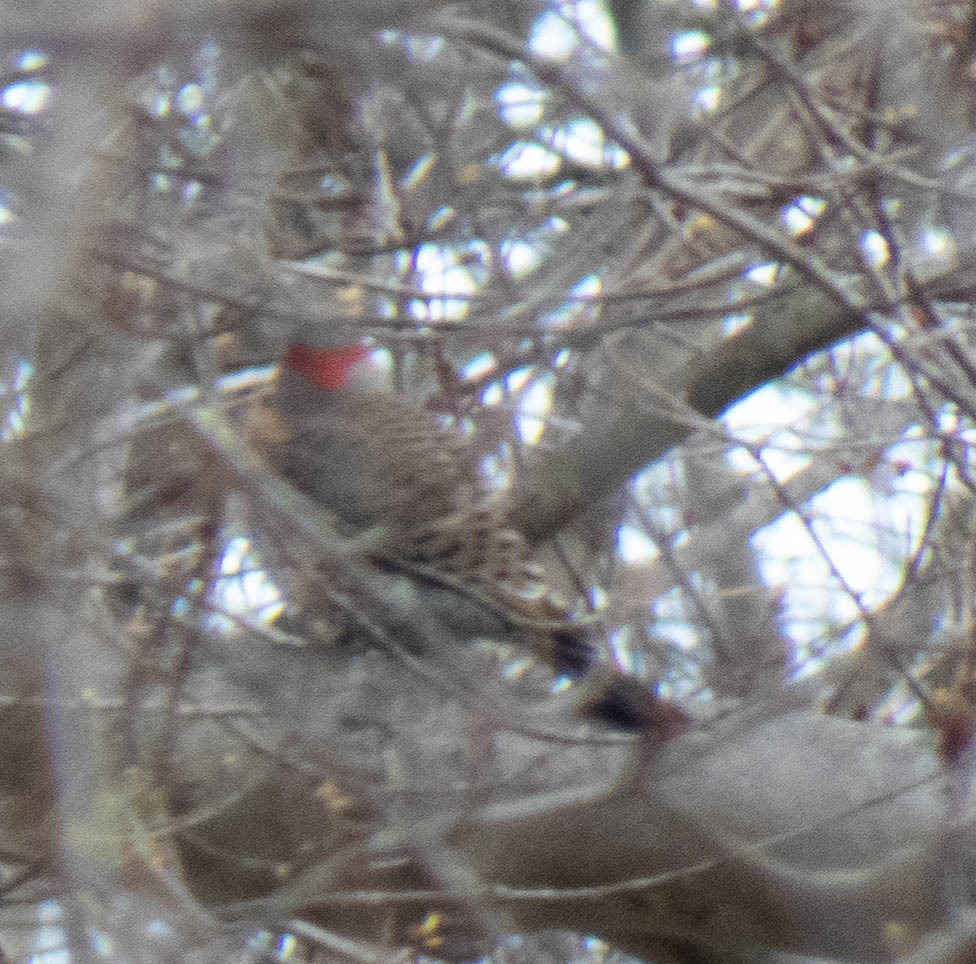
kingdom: Animalia
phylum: Chordata
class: Aves
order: Piciformes
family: Picidae
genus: Colaptes
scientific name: Colaptes auratus
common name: Northern flicker
